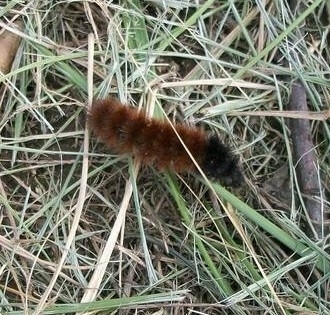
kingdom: Animalia
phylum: Arthropoda
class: Insecta
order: Lepidoptera
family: Erebidae
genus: Pyrrharctia
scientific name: Pyrrharctia isabella
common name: Isabella tiger moth
